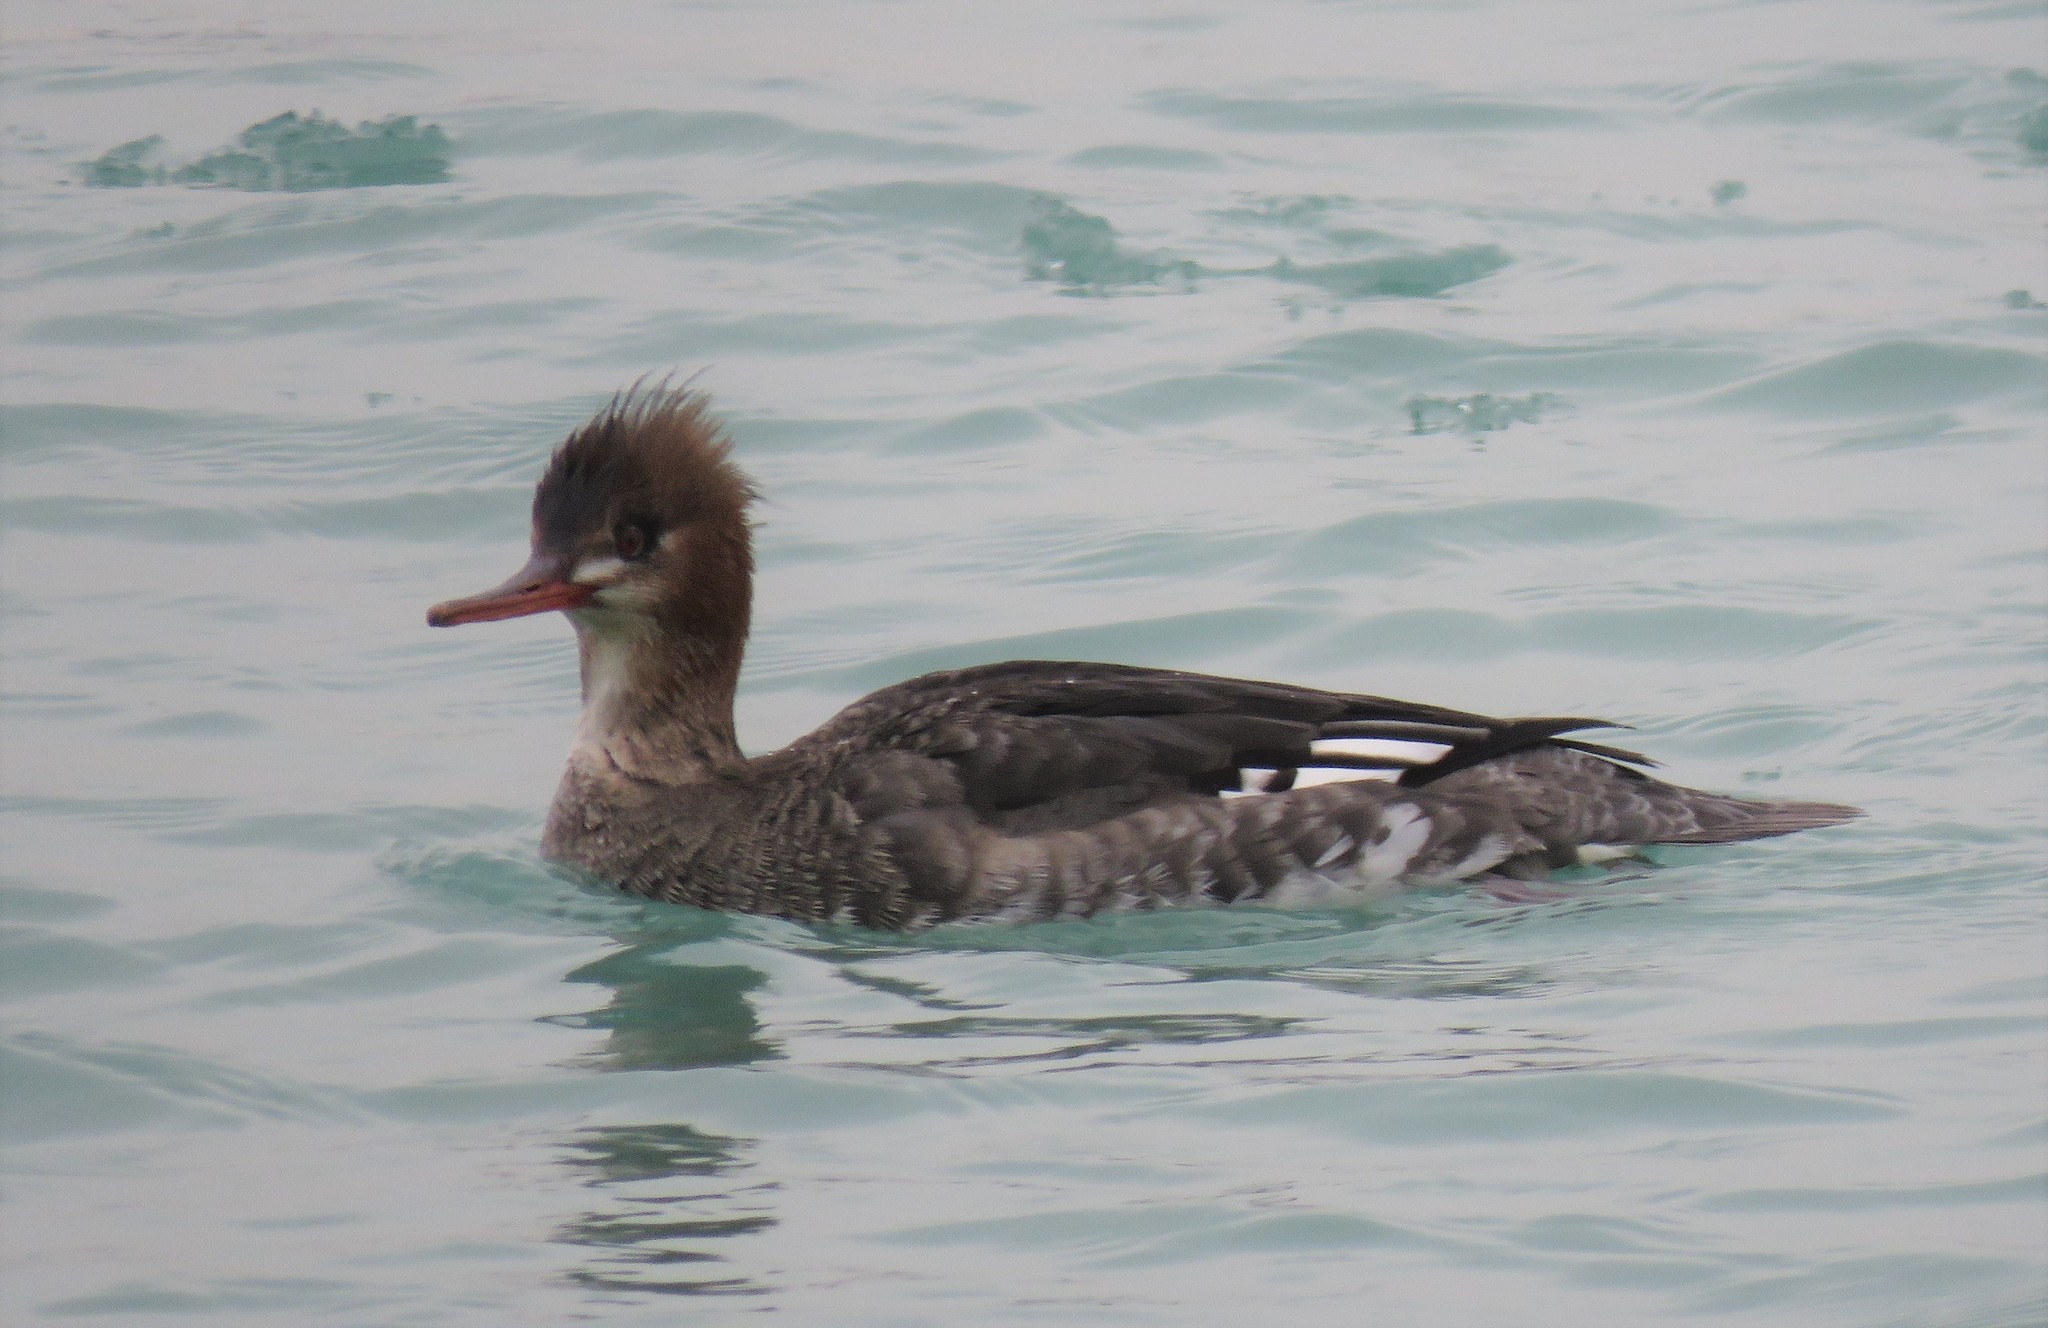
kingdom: Animalia
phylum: Chordata
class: Aves
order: Anseriformes
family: Anatidae
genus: Mergus
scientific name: Mergus serrator
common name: Red-breasted merganser
